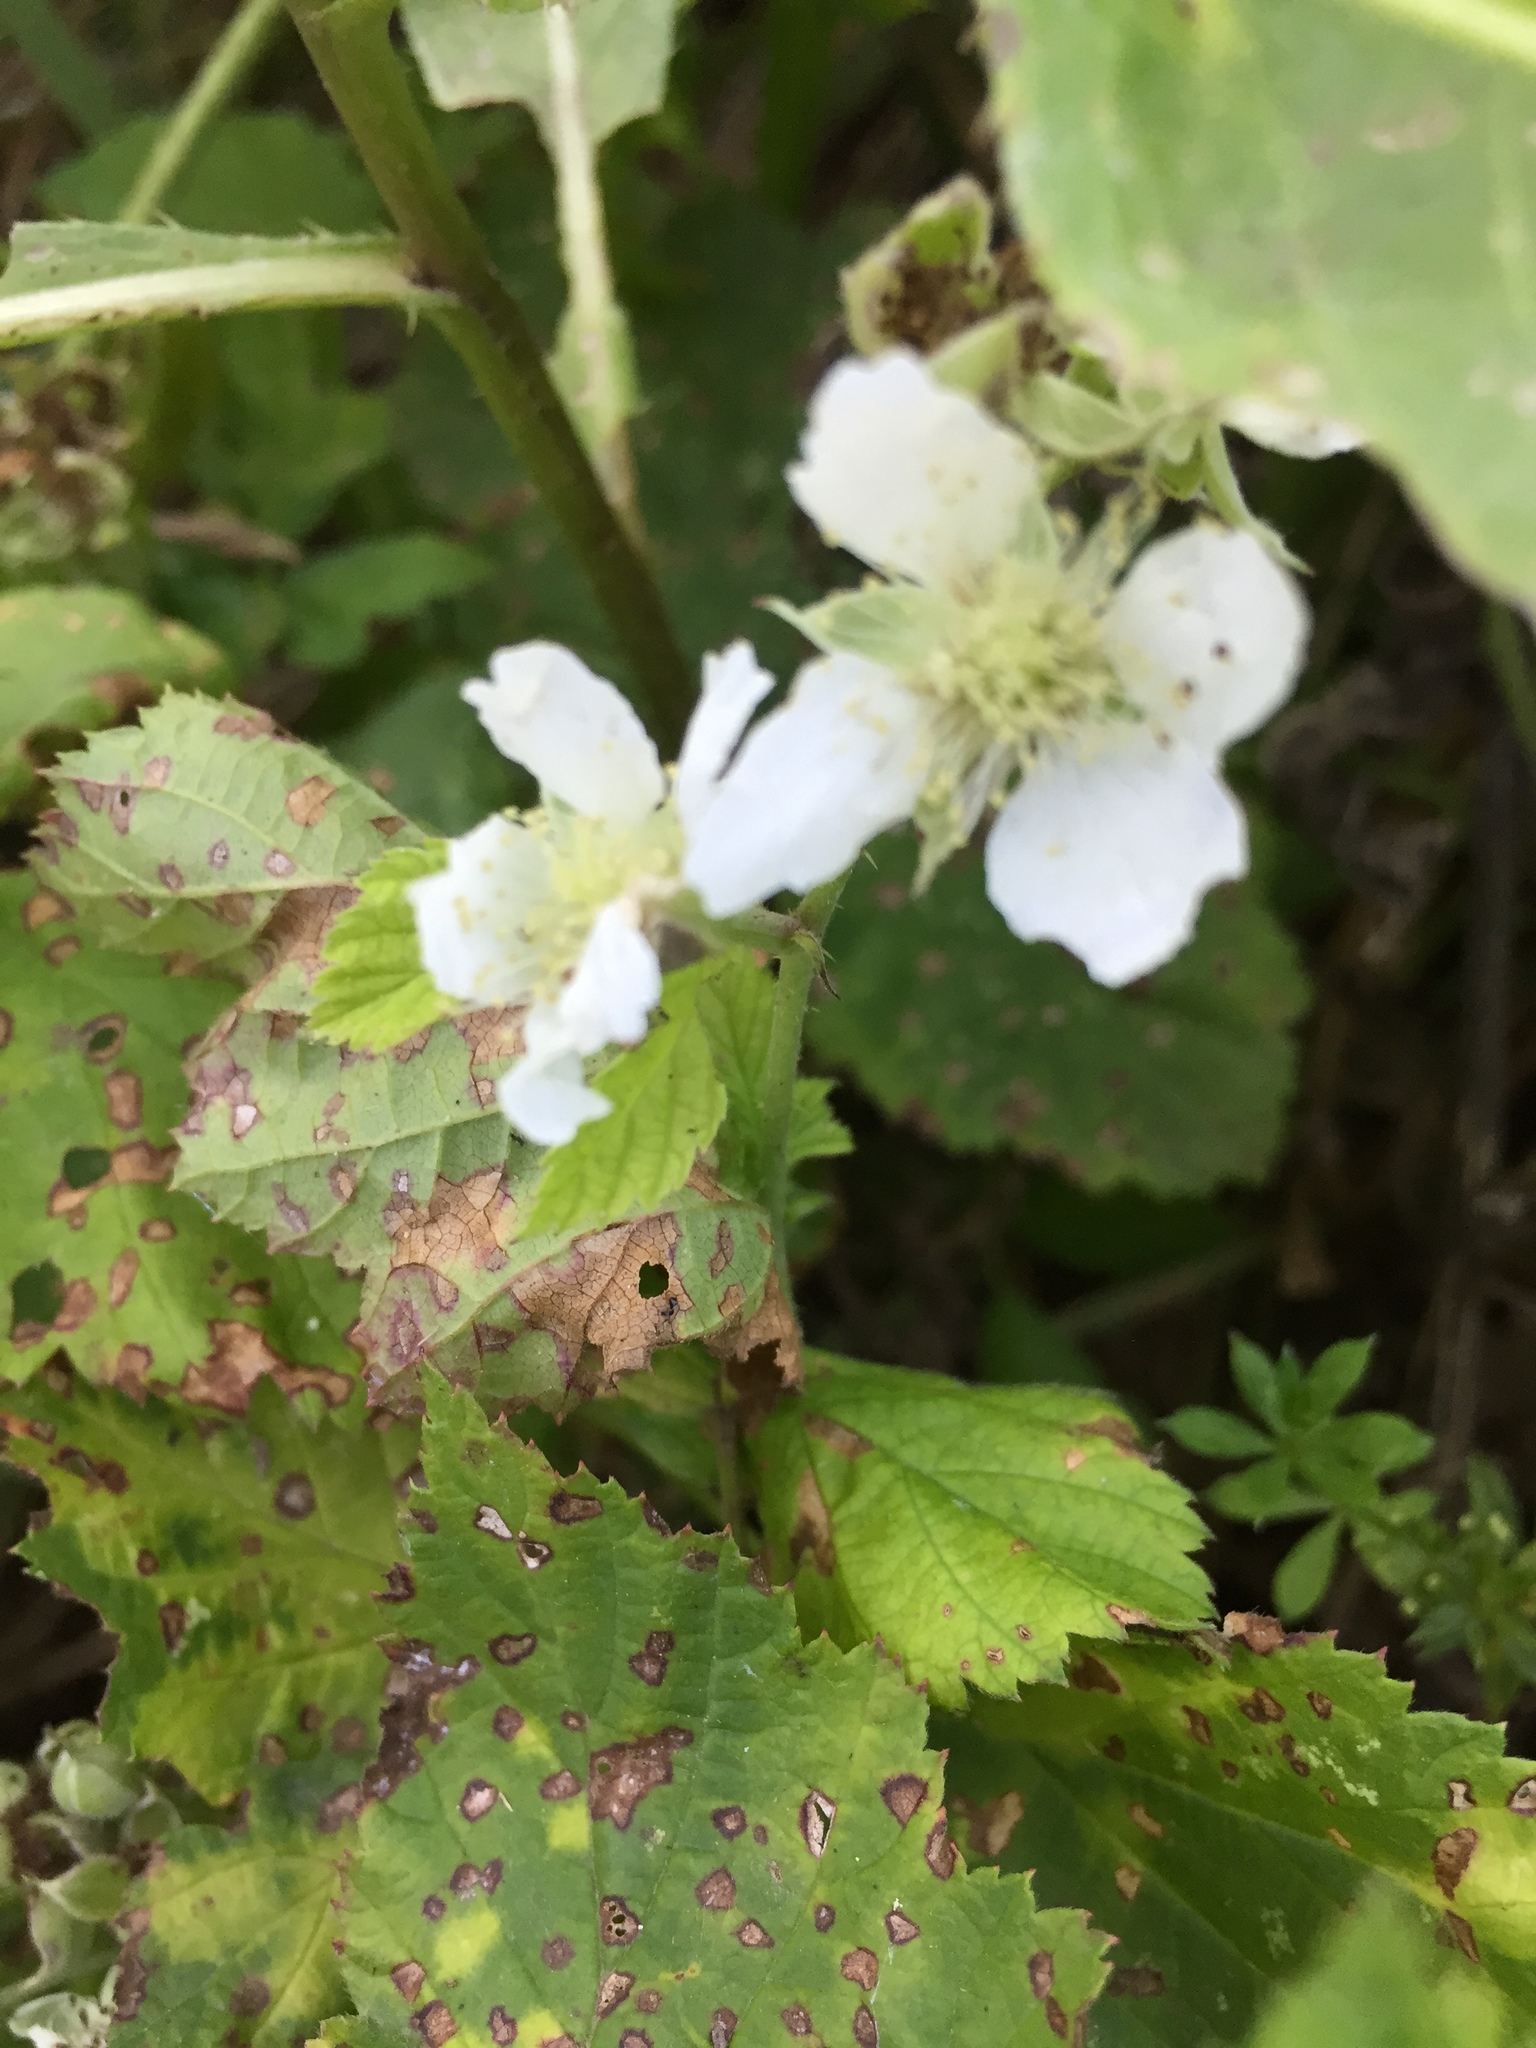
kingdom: Plantae
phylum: Tracheophyta
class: Magnoliopsida
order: Rosales
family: Rosaceae
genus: Rubus
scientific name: Rubus caesius
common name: Dewberry
